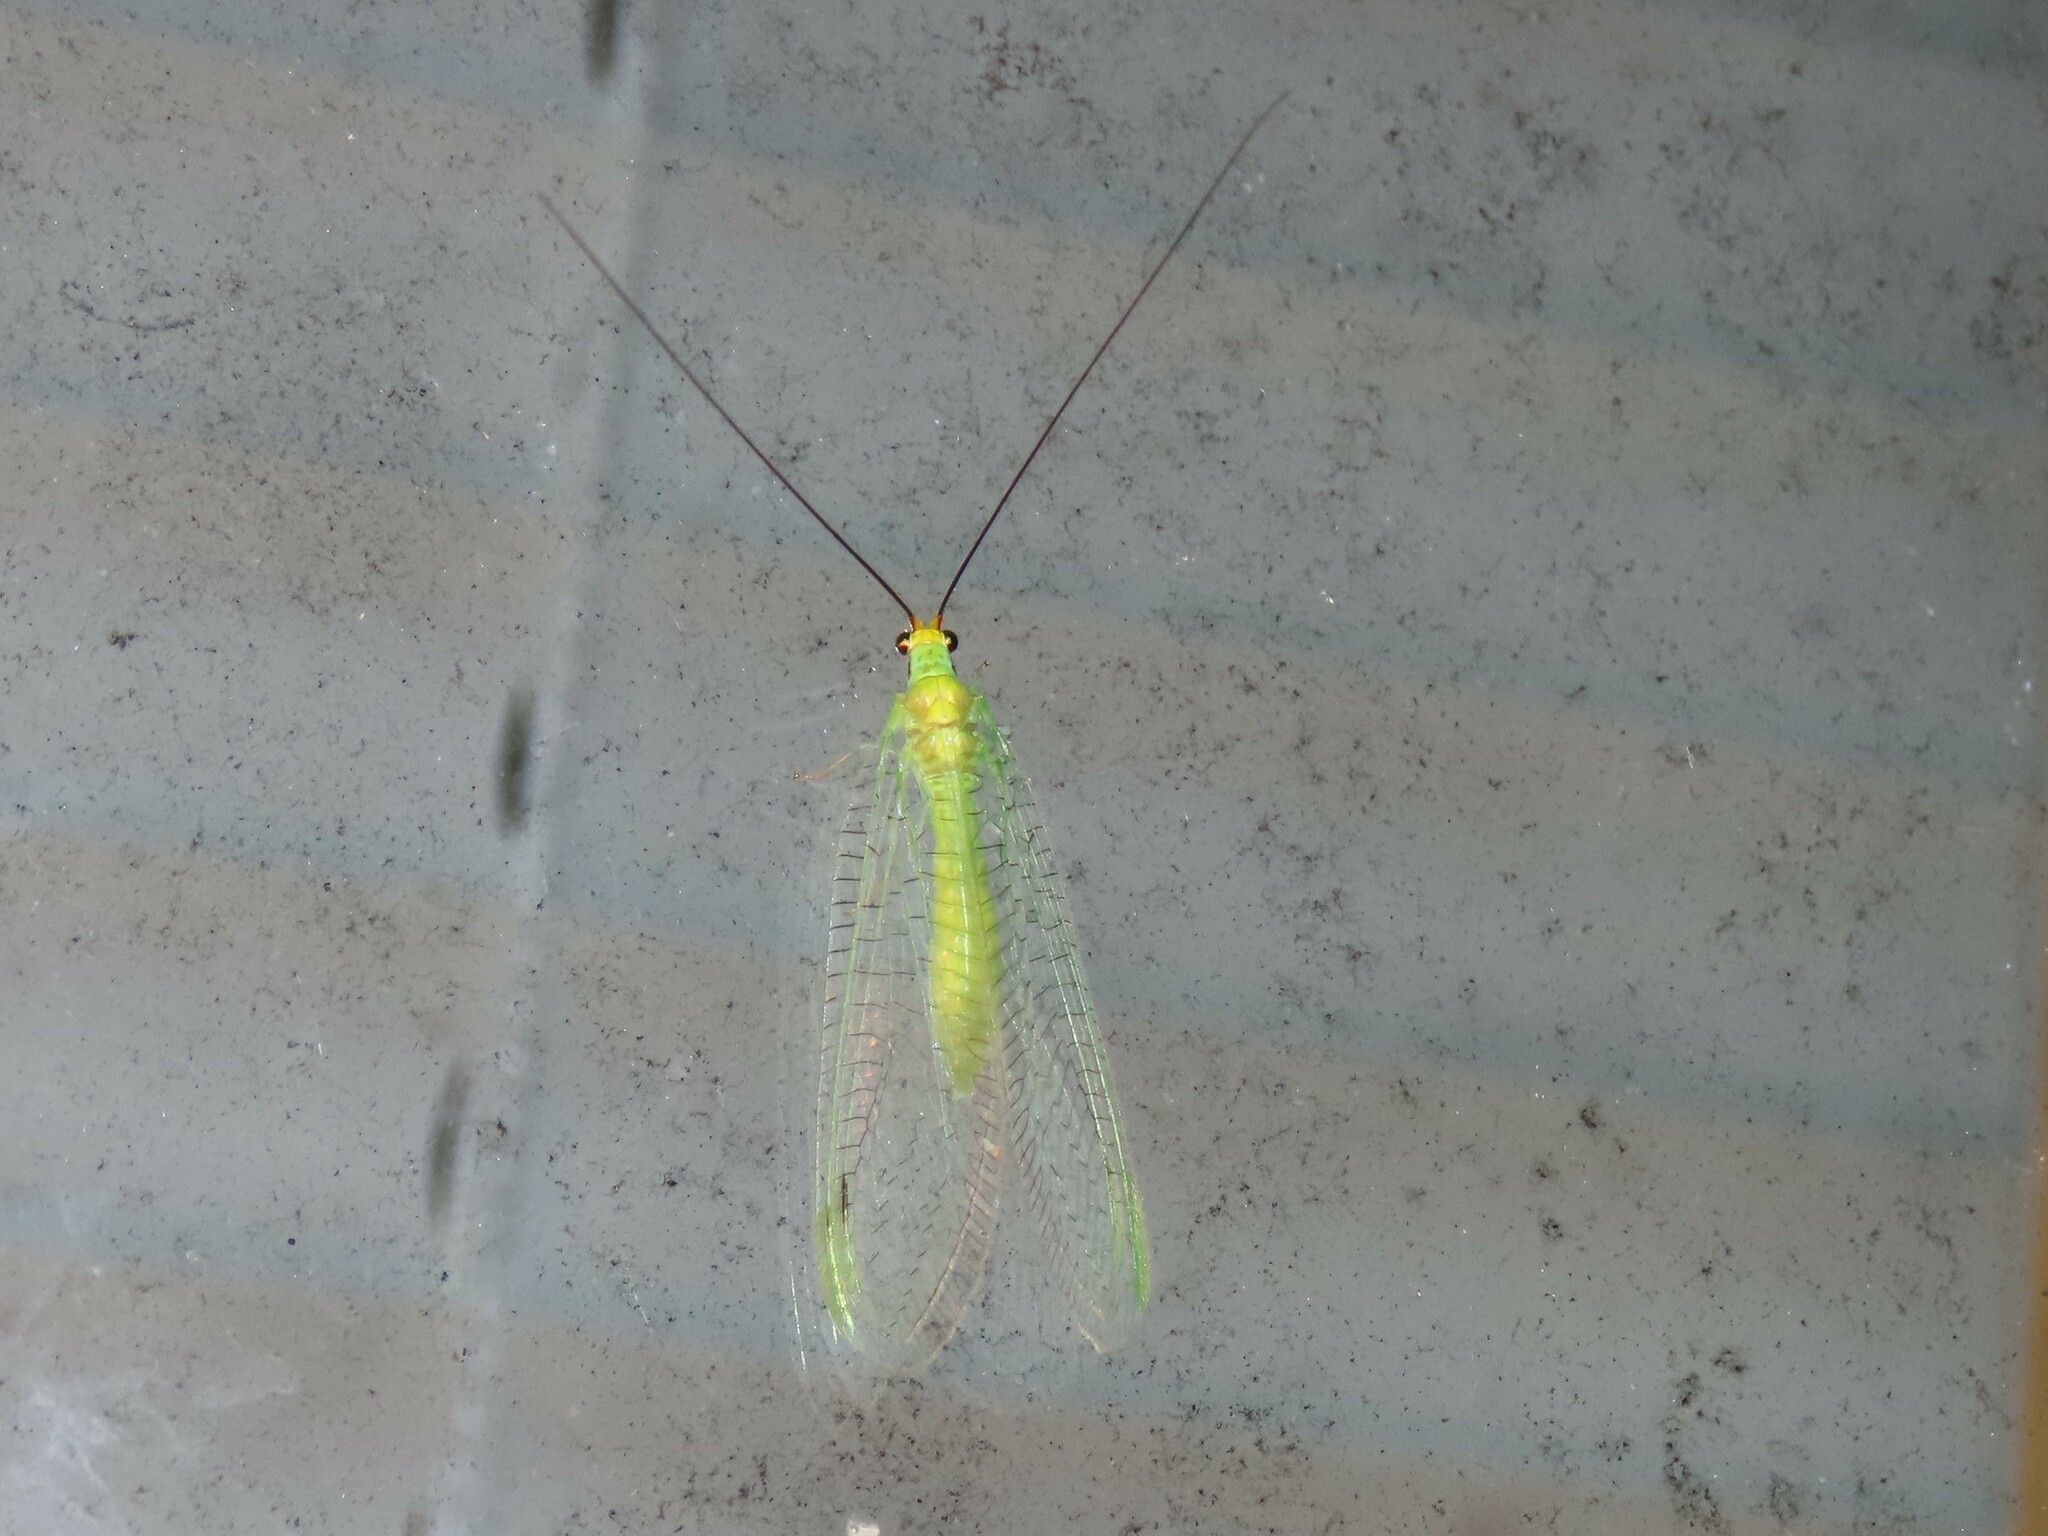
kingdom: Animalia
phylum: Arthropoda
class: Insecta
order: Neuroptera
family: Chrysopidae
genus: Leucochrysa
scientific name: Leucochrysa pavida
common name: Lichen-carrying green lacewing
